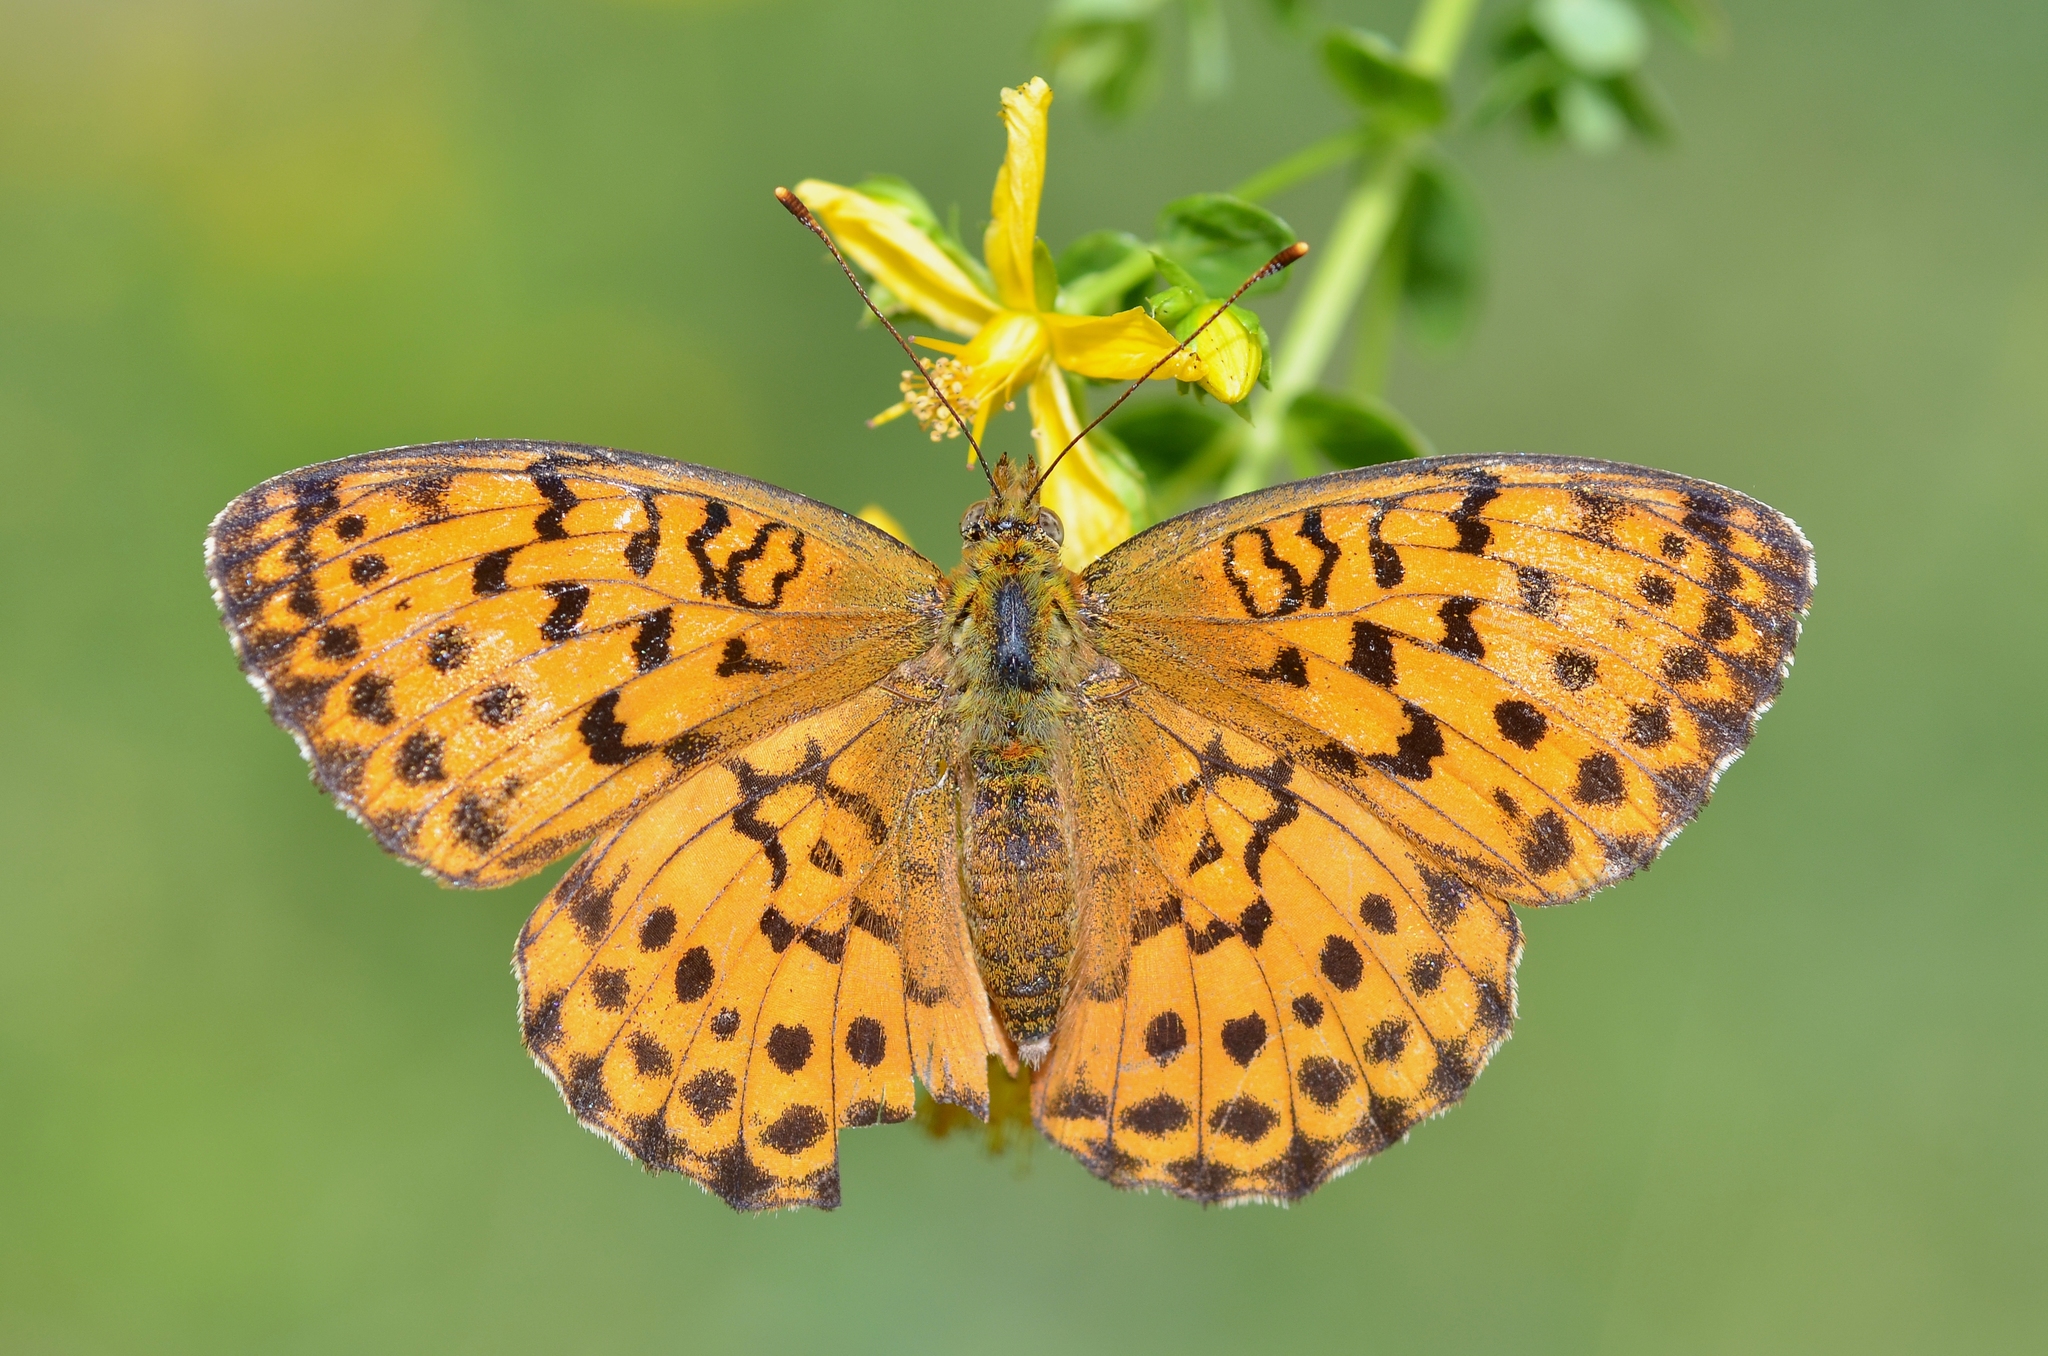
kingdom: Animalia
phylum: Arthropoda
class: Insecta
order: Lepidoptera
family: Nymphalidae
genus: Brenthis
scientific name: Brenthis daphne
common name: Marbled fritillary
